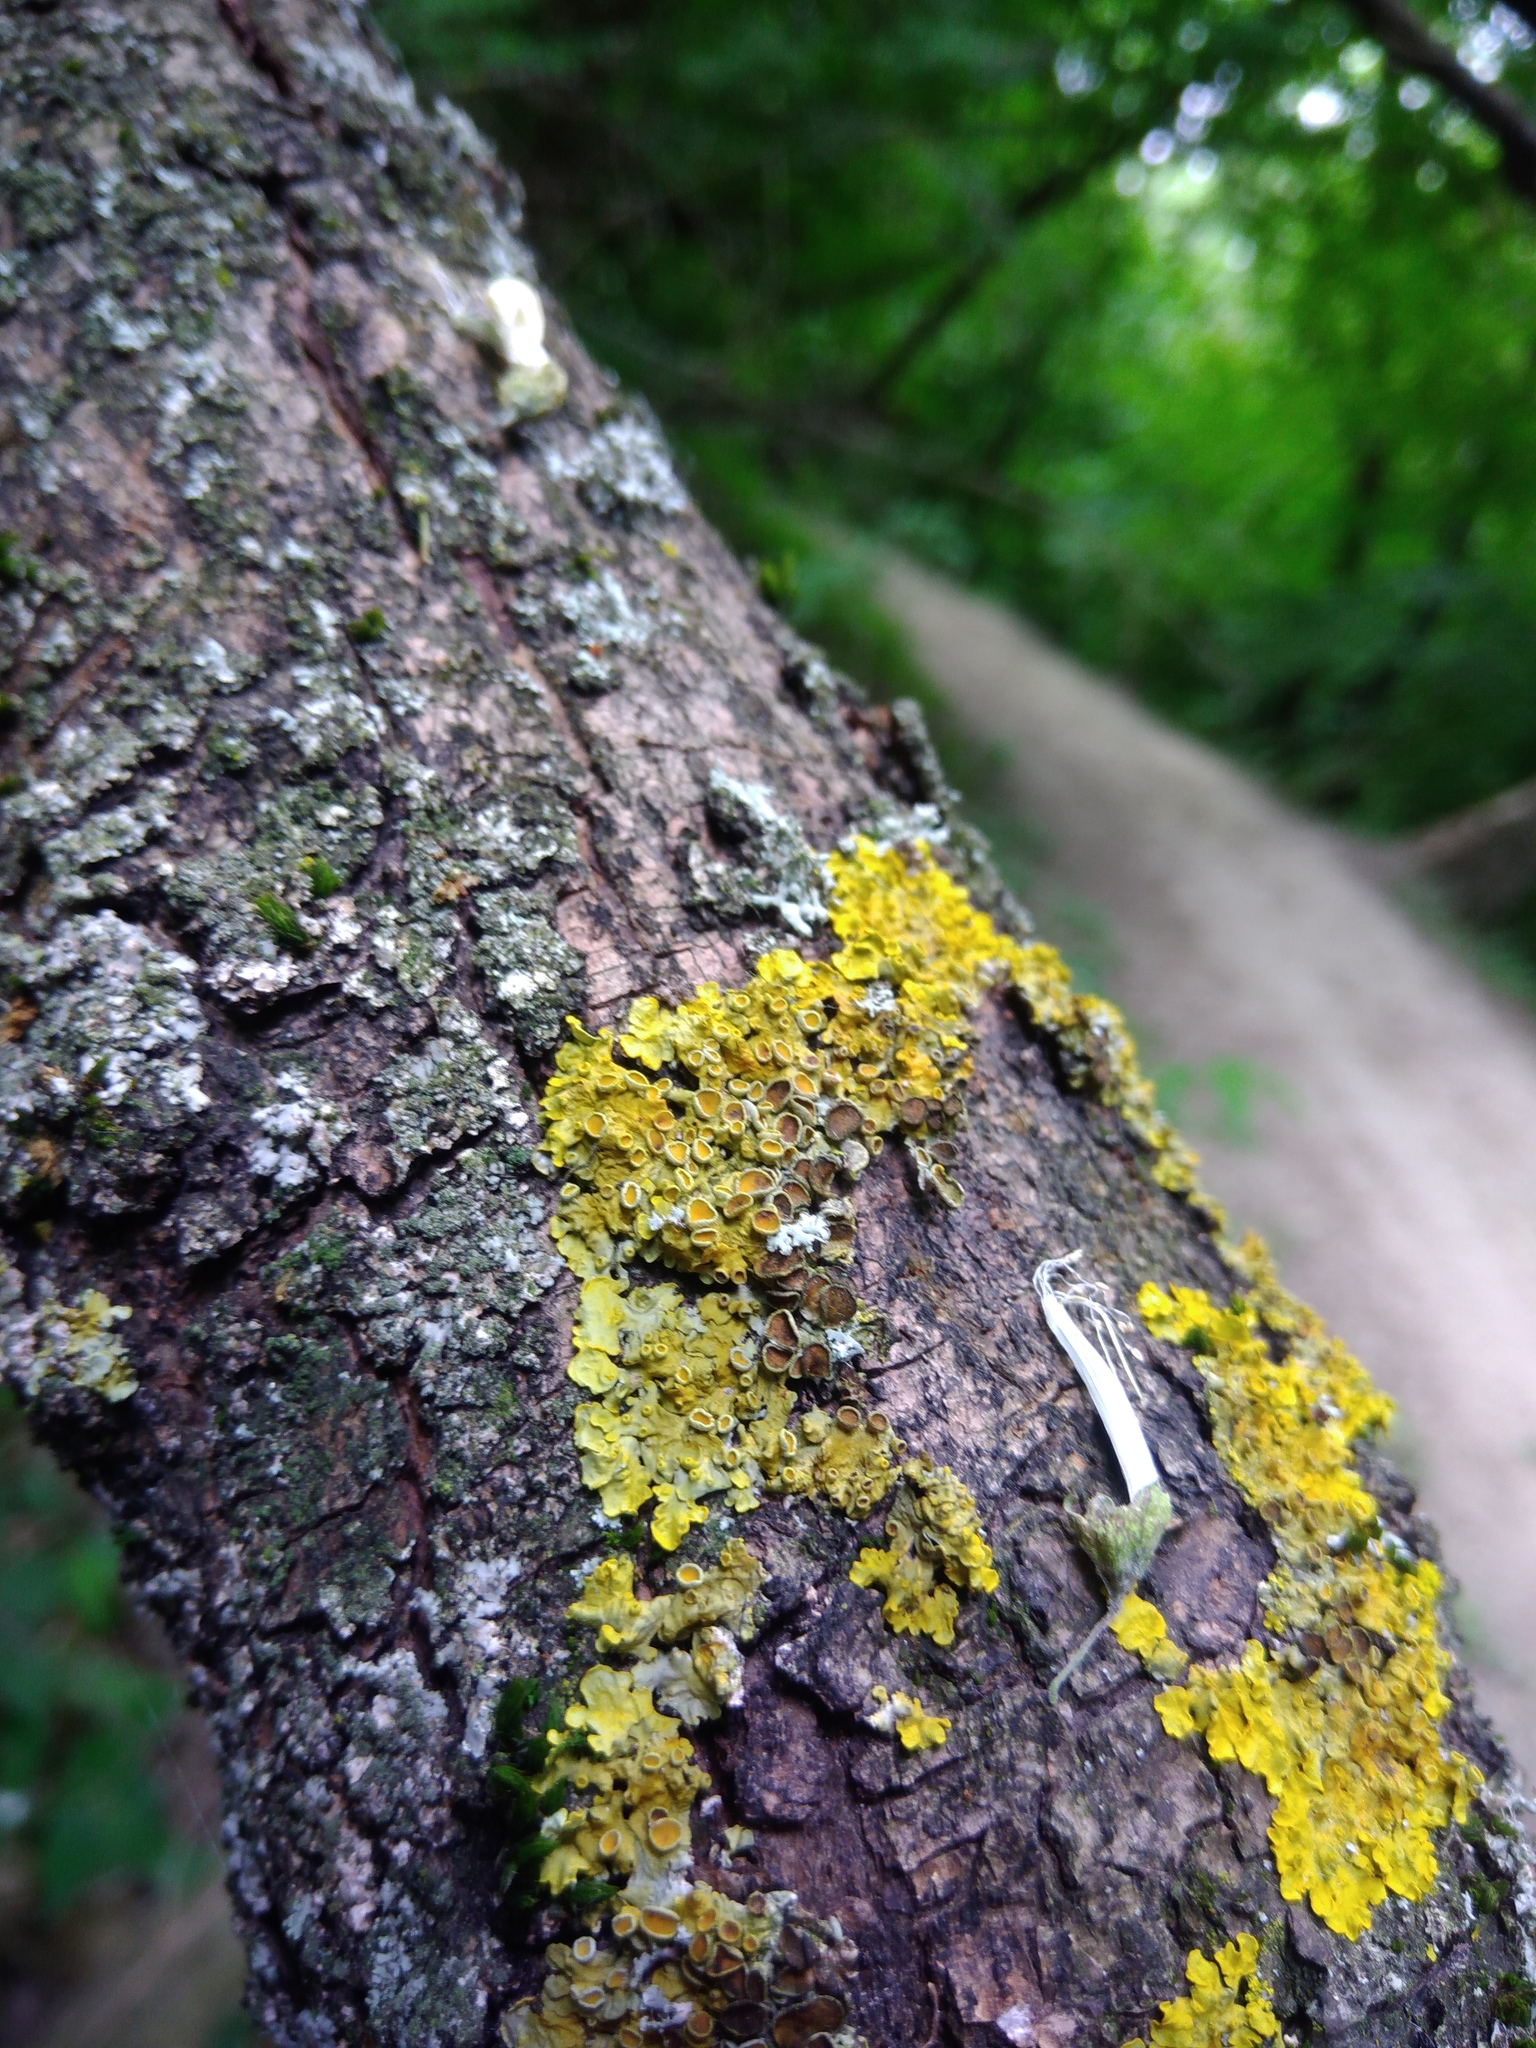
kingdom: Fungi
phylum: Ascomycota
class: Lecanoromycetes
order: Teloschistales
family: Teloschistaceae
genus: Xanthoria
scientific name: Xanthoria parietina
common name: Common orange lichen
